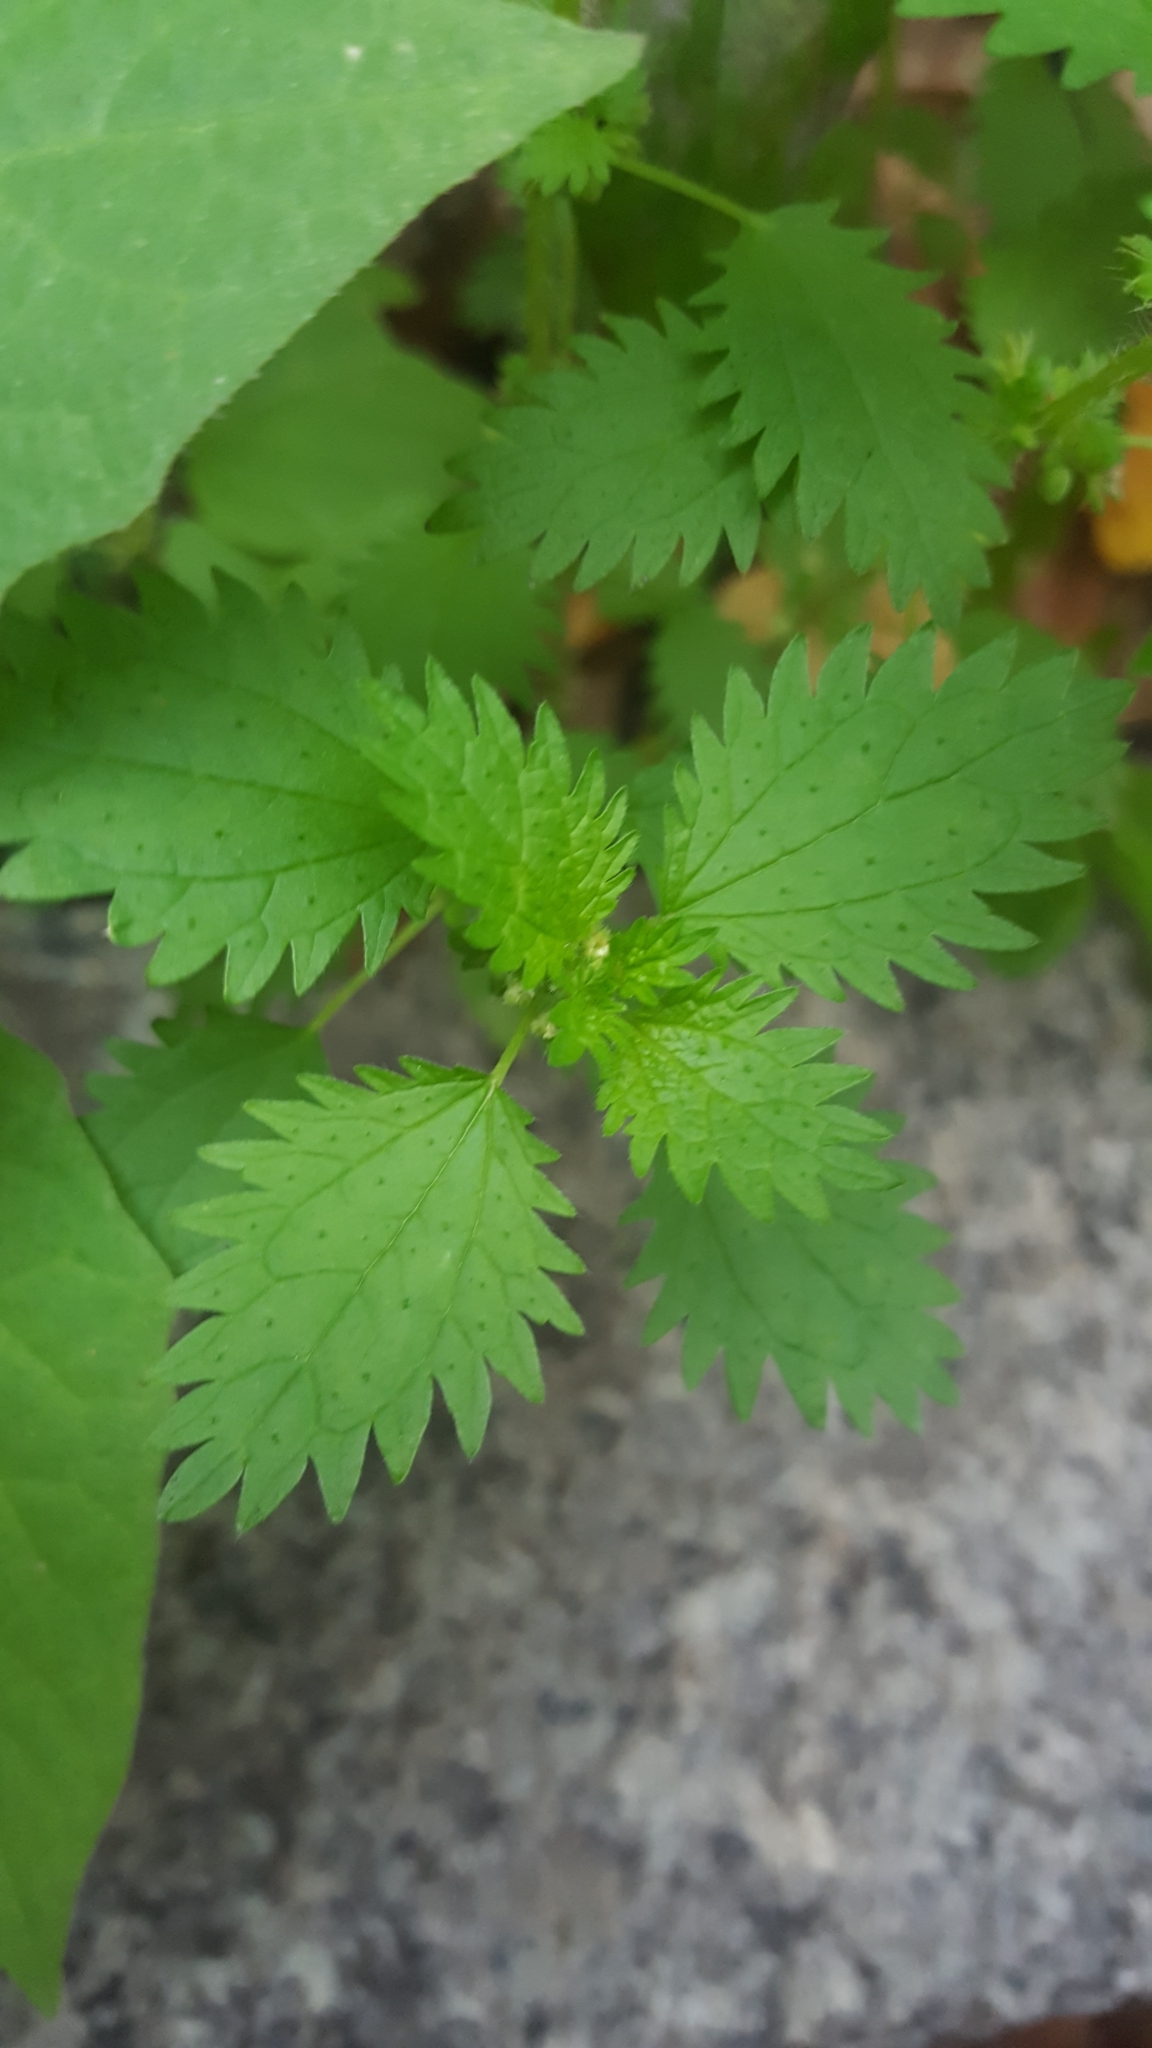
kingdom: Plantae
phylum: Tracheophyta
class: Magnoliopsida
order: Rosales
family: Urticaceae
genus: Urtica
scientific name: Urtica urens
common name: Dwarf nettle
